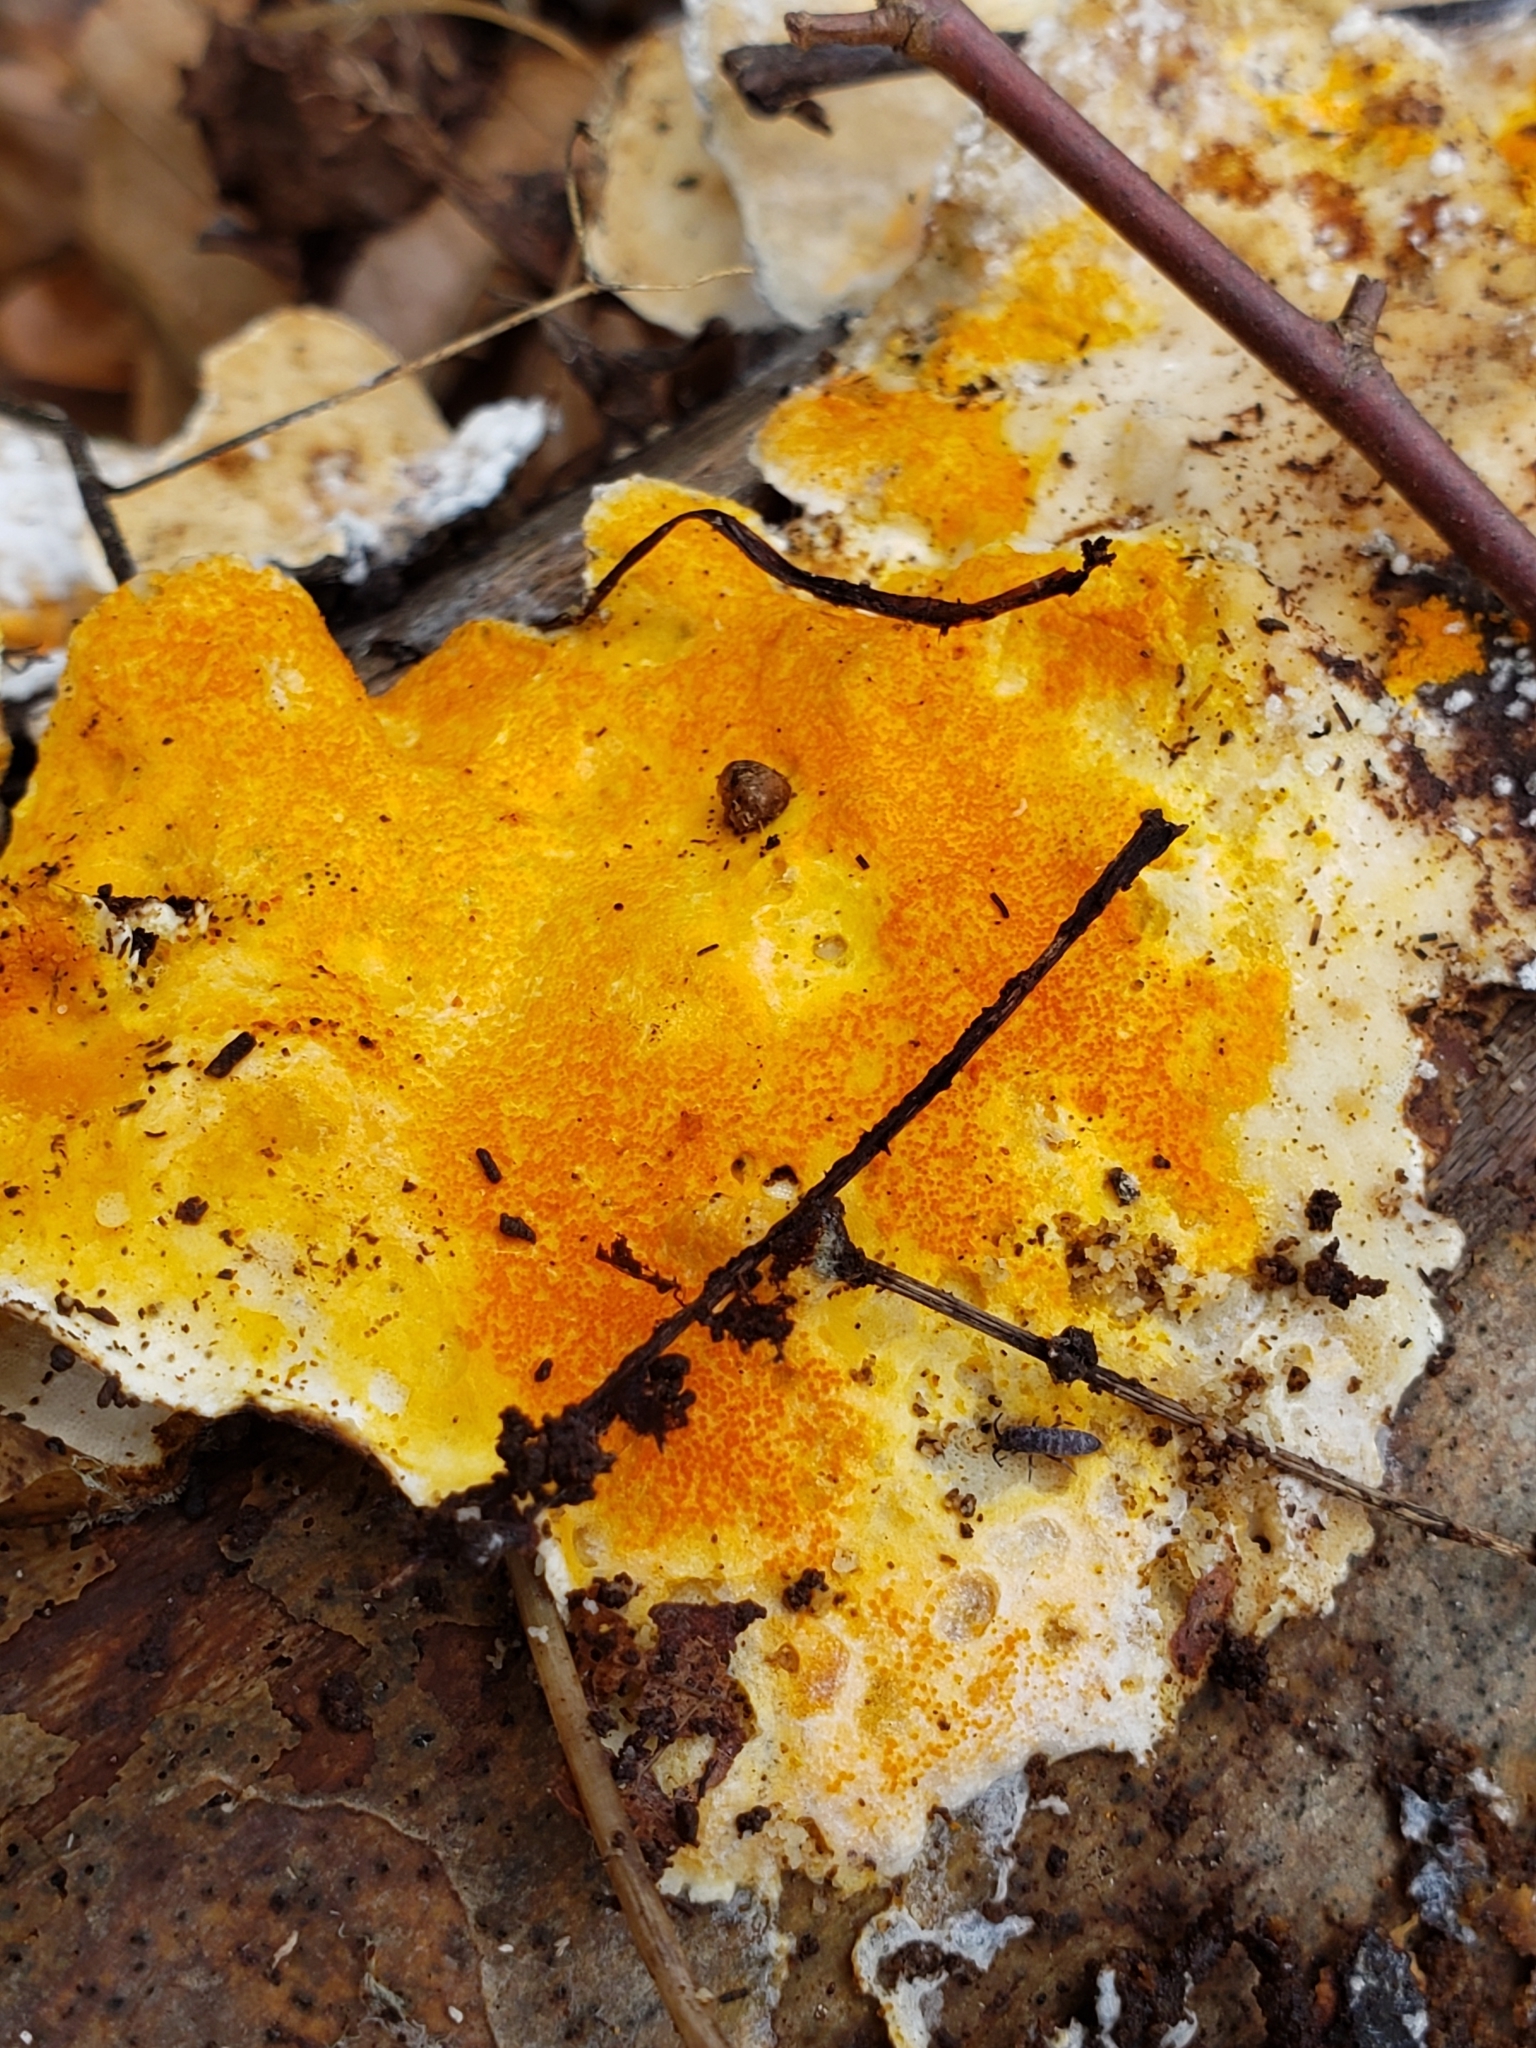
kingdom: Fungi
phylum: Ascomycota
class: Sordariomycetes
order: Hypocreales
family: Hypocreaceae
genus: Hypomyces
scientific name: Hypomyces aurantius
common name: Orange polypore mould
